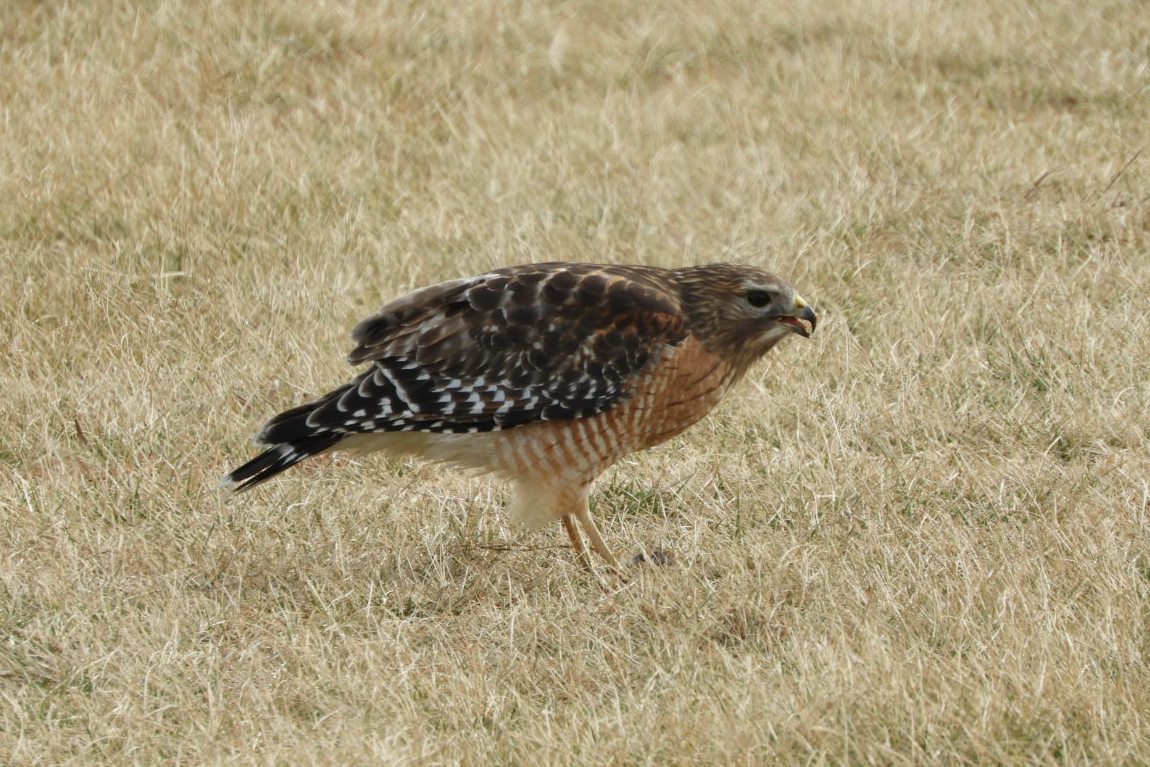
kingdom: Animalia
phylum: Chordata
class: Aves
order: Accipitriformes
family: Accipitridae
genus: Buteo
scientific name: Buteo lineatus
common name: Red-shouldered hawk
